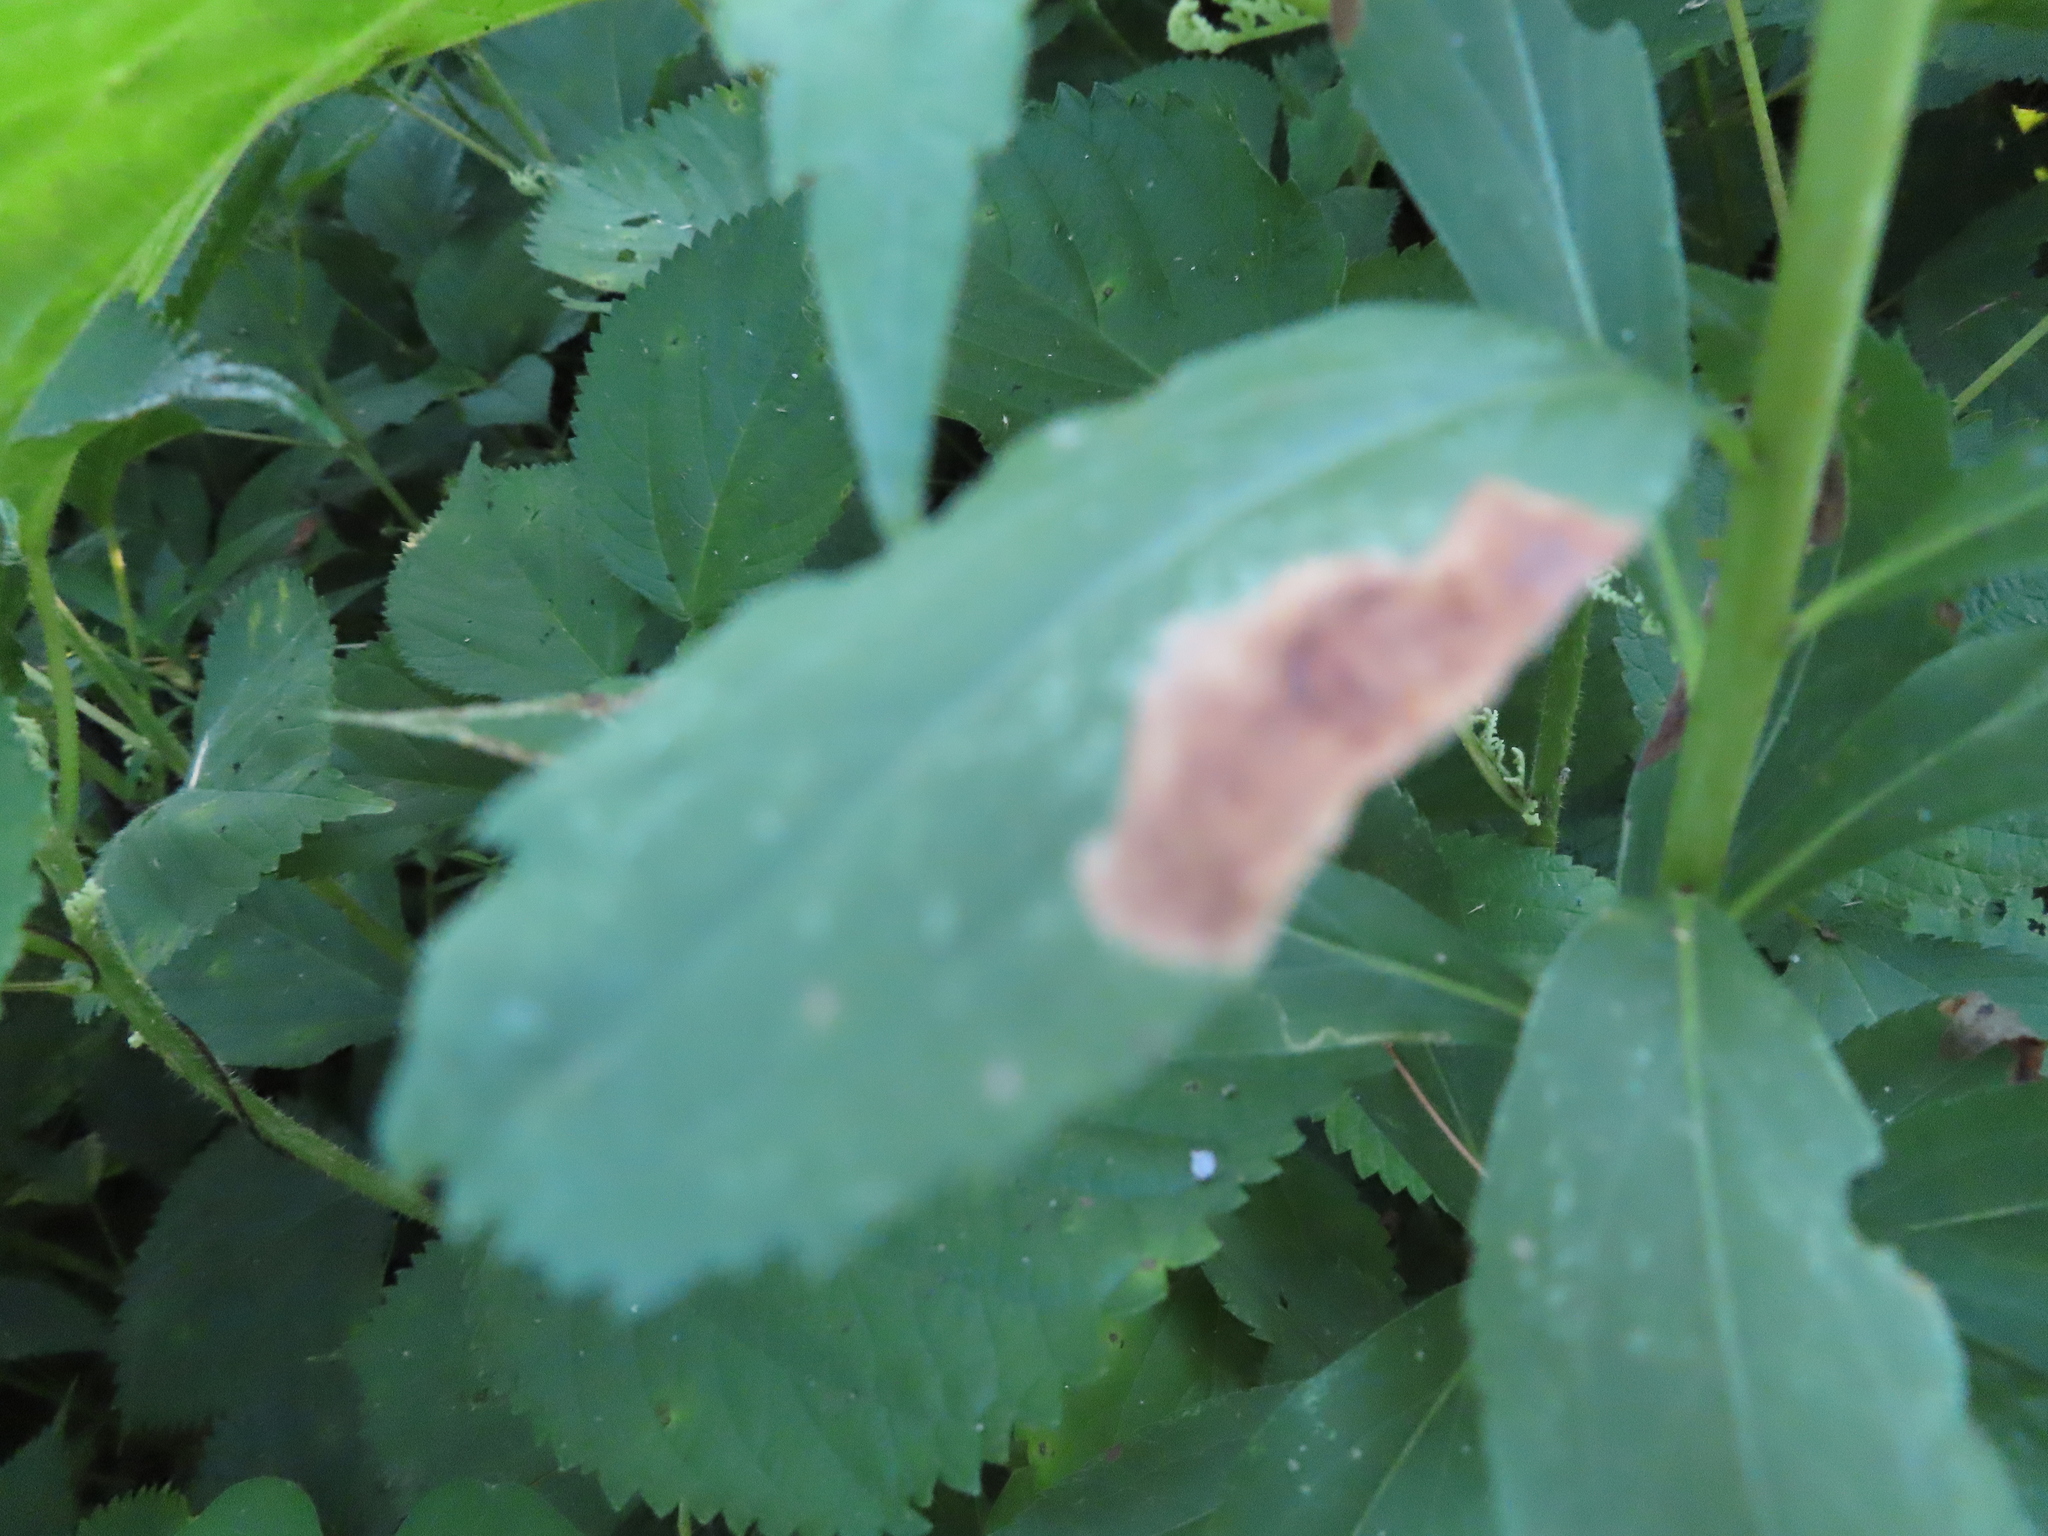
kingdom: Animalia
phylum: Arthropoda
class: Insecta
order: Diptera
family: Agromyzidae
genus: Nemorimyza
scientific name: Nemorimyza posticata
